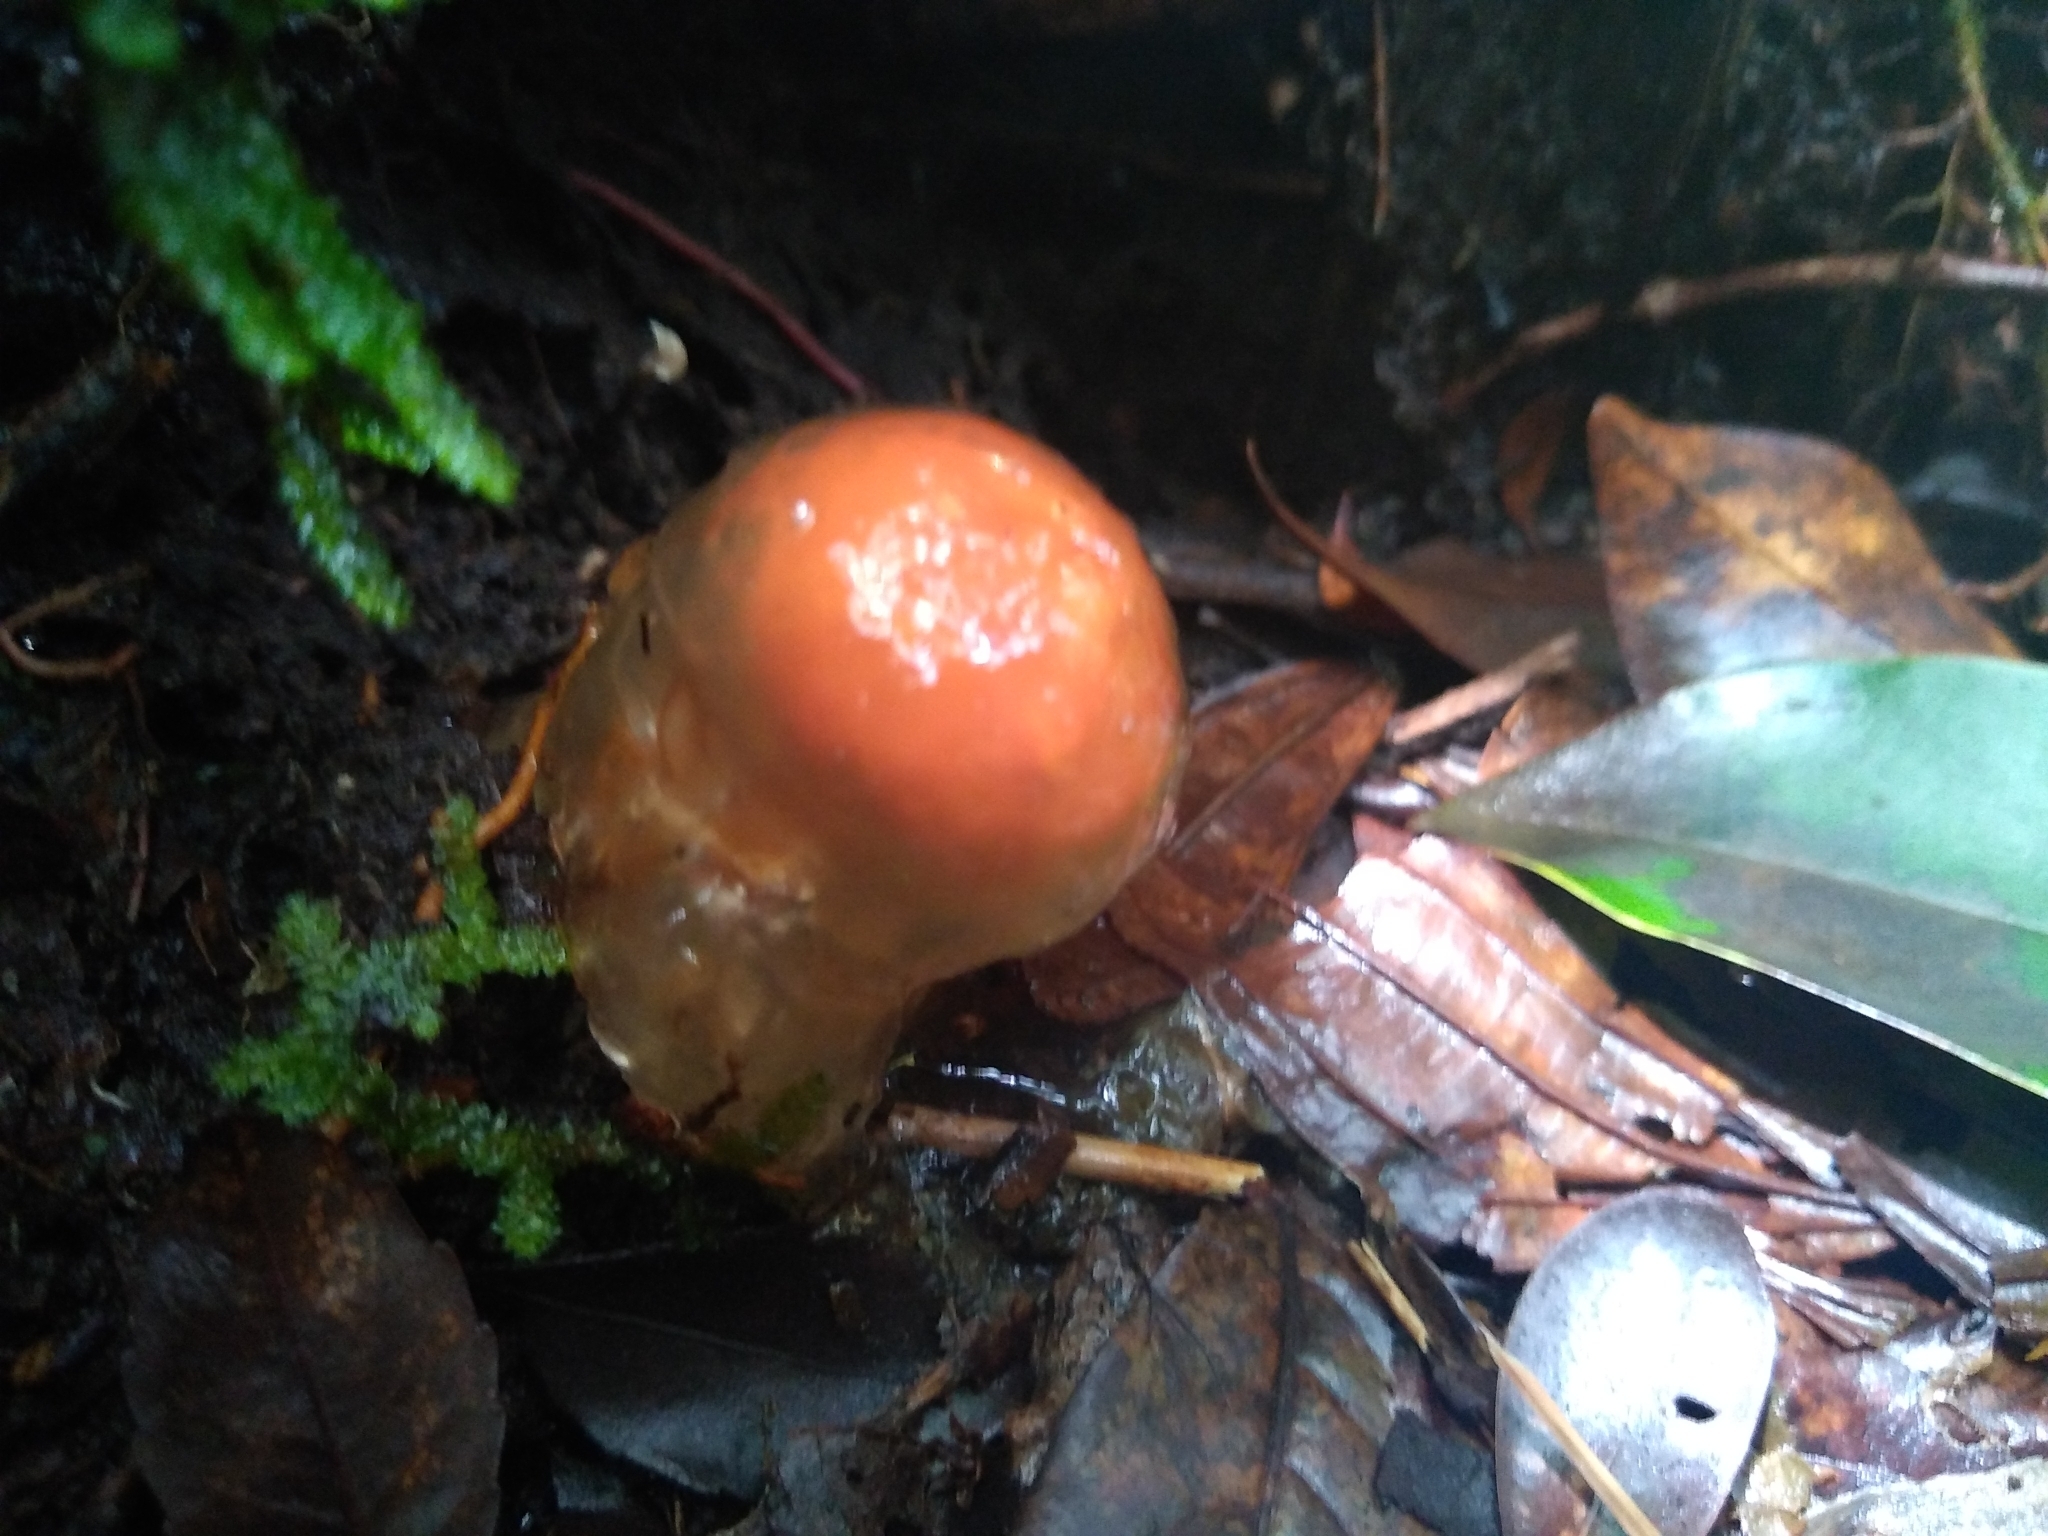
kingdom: Fungi
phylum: Basidiomycota
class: Agaricomycetes
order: Boletales
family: Calostomataceae
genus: Calostoma
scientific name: Calostoma cinnabarinum
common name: Stalked puffball-in-aspic
